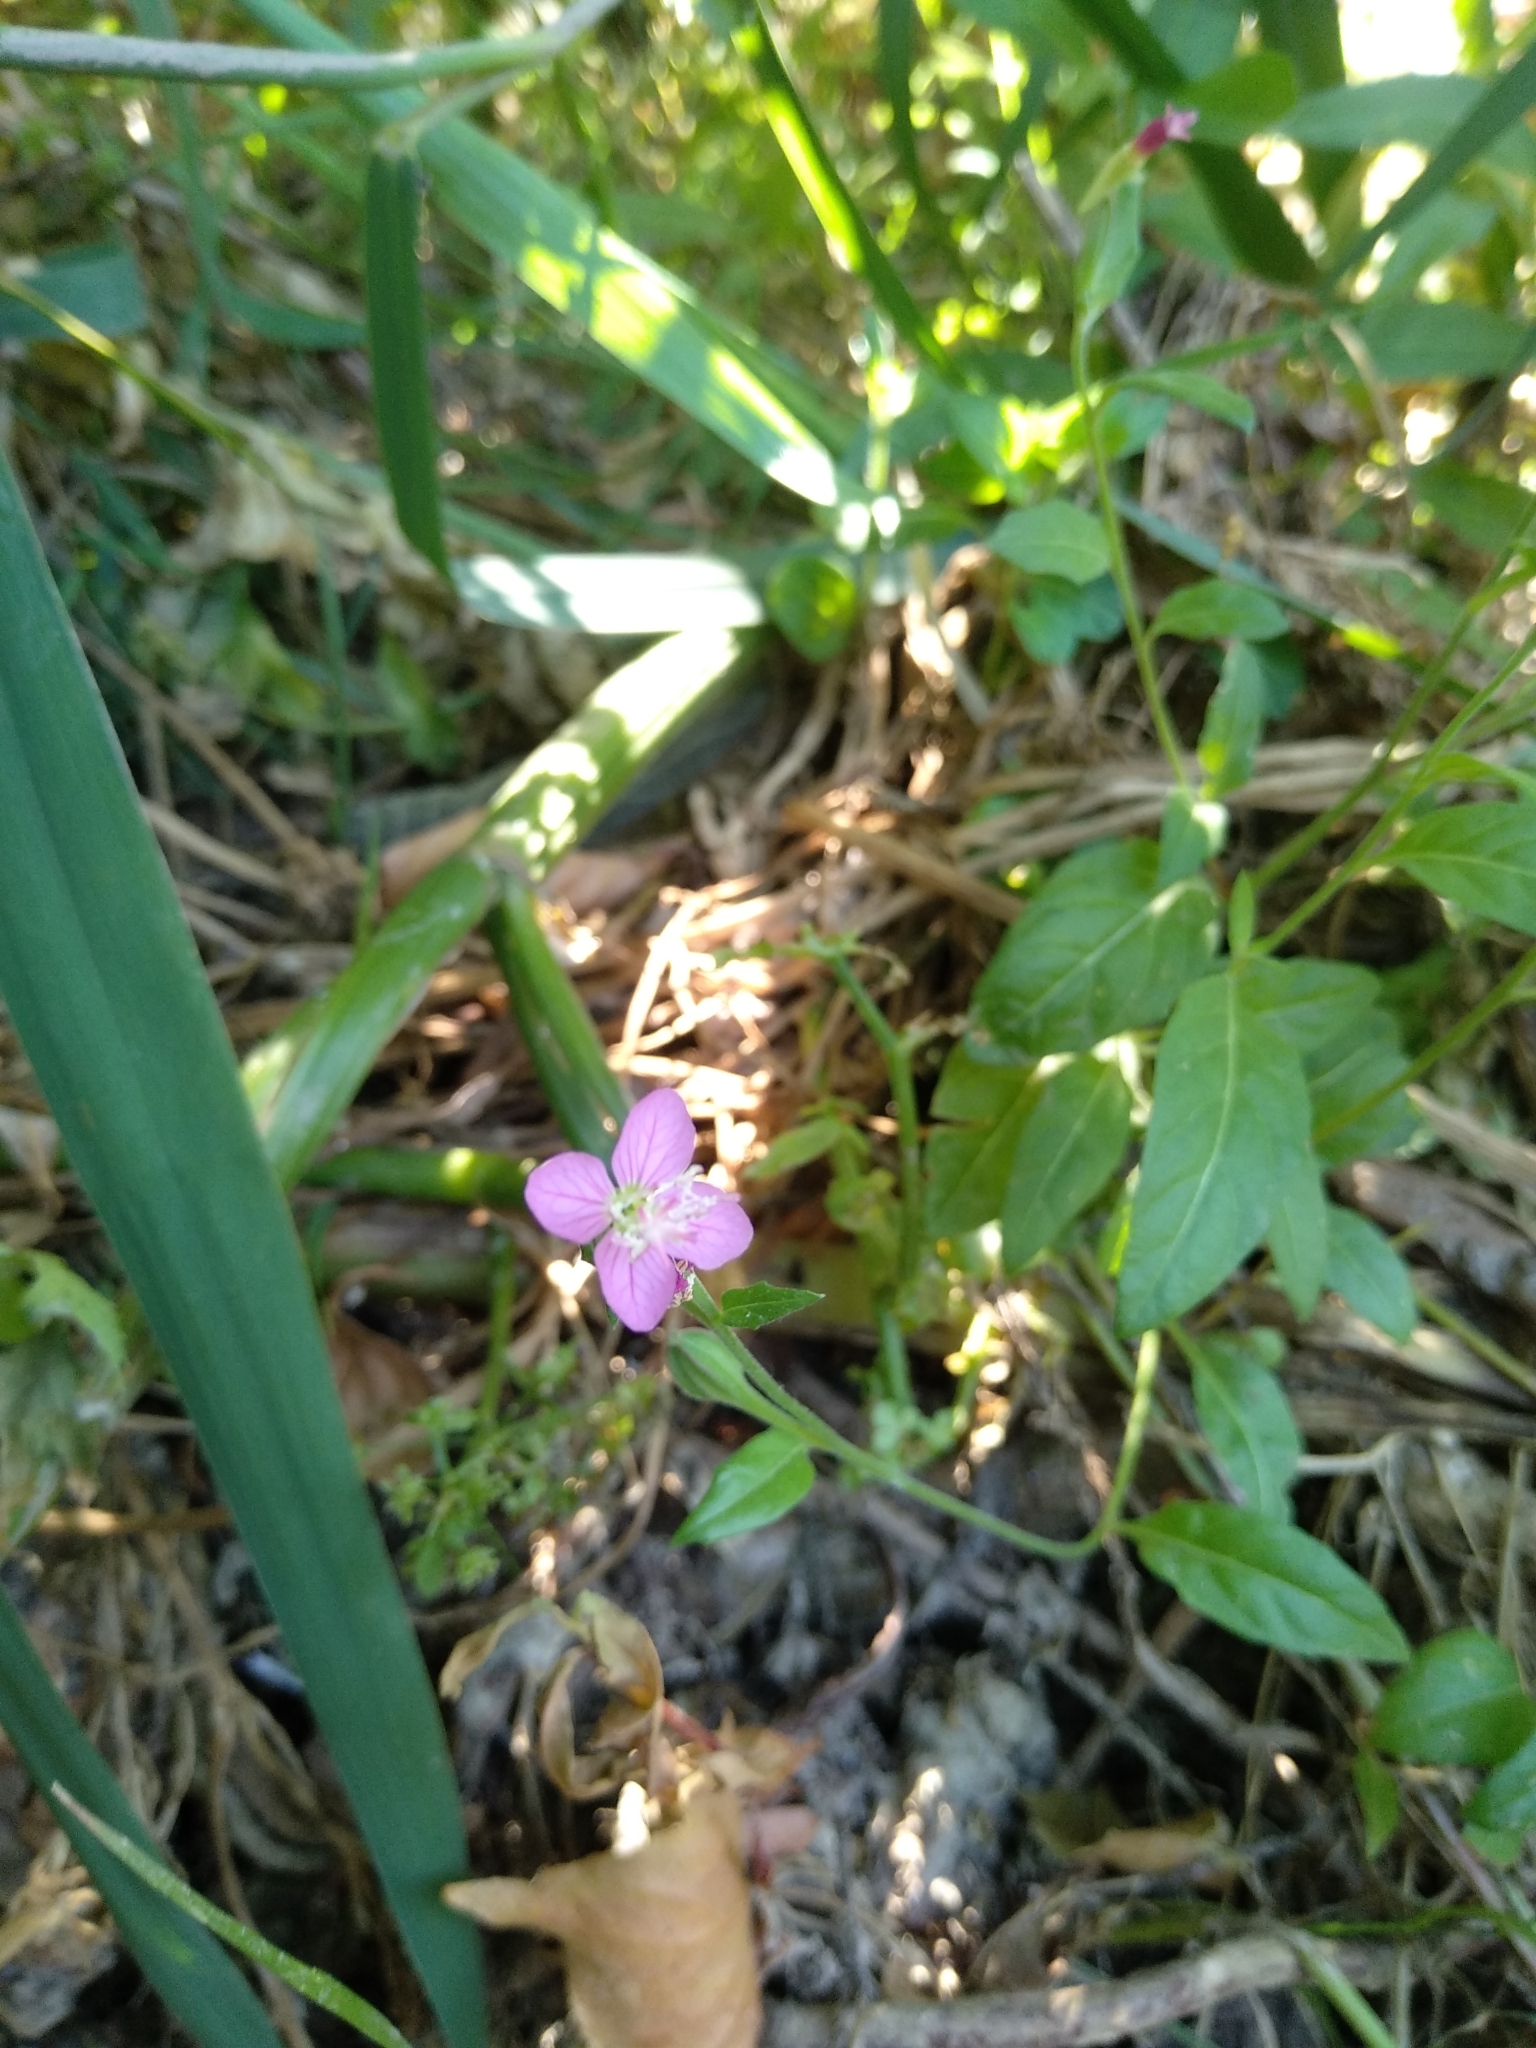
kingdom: Plantae
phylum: Tracheophyta
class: Magnoliopsida
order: Myrtales
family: Onagraceae
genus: Oenothera
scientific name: Oenothera rosea
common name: Rosy evening-primrose
